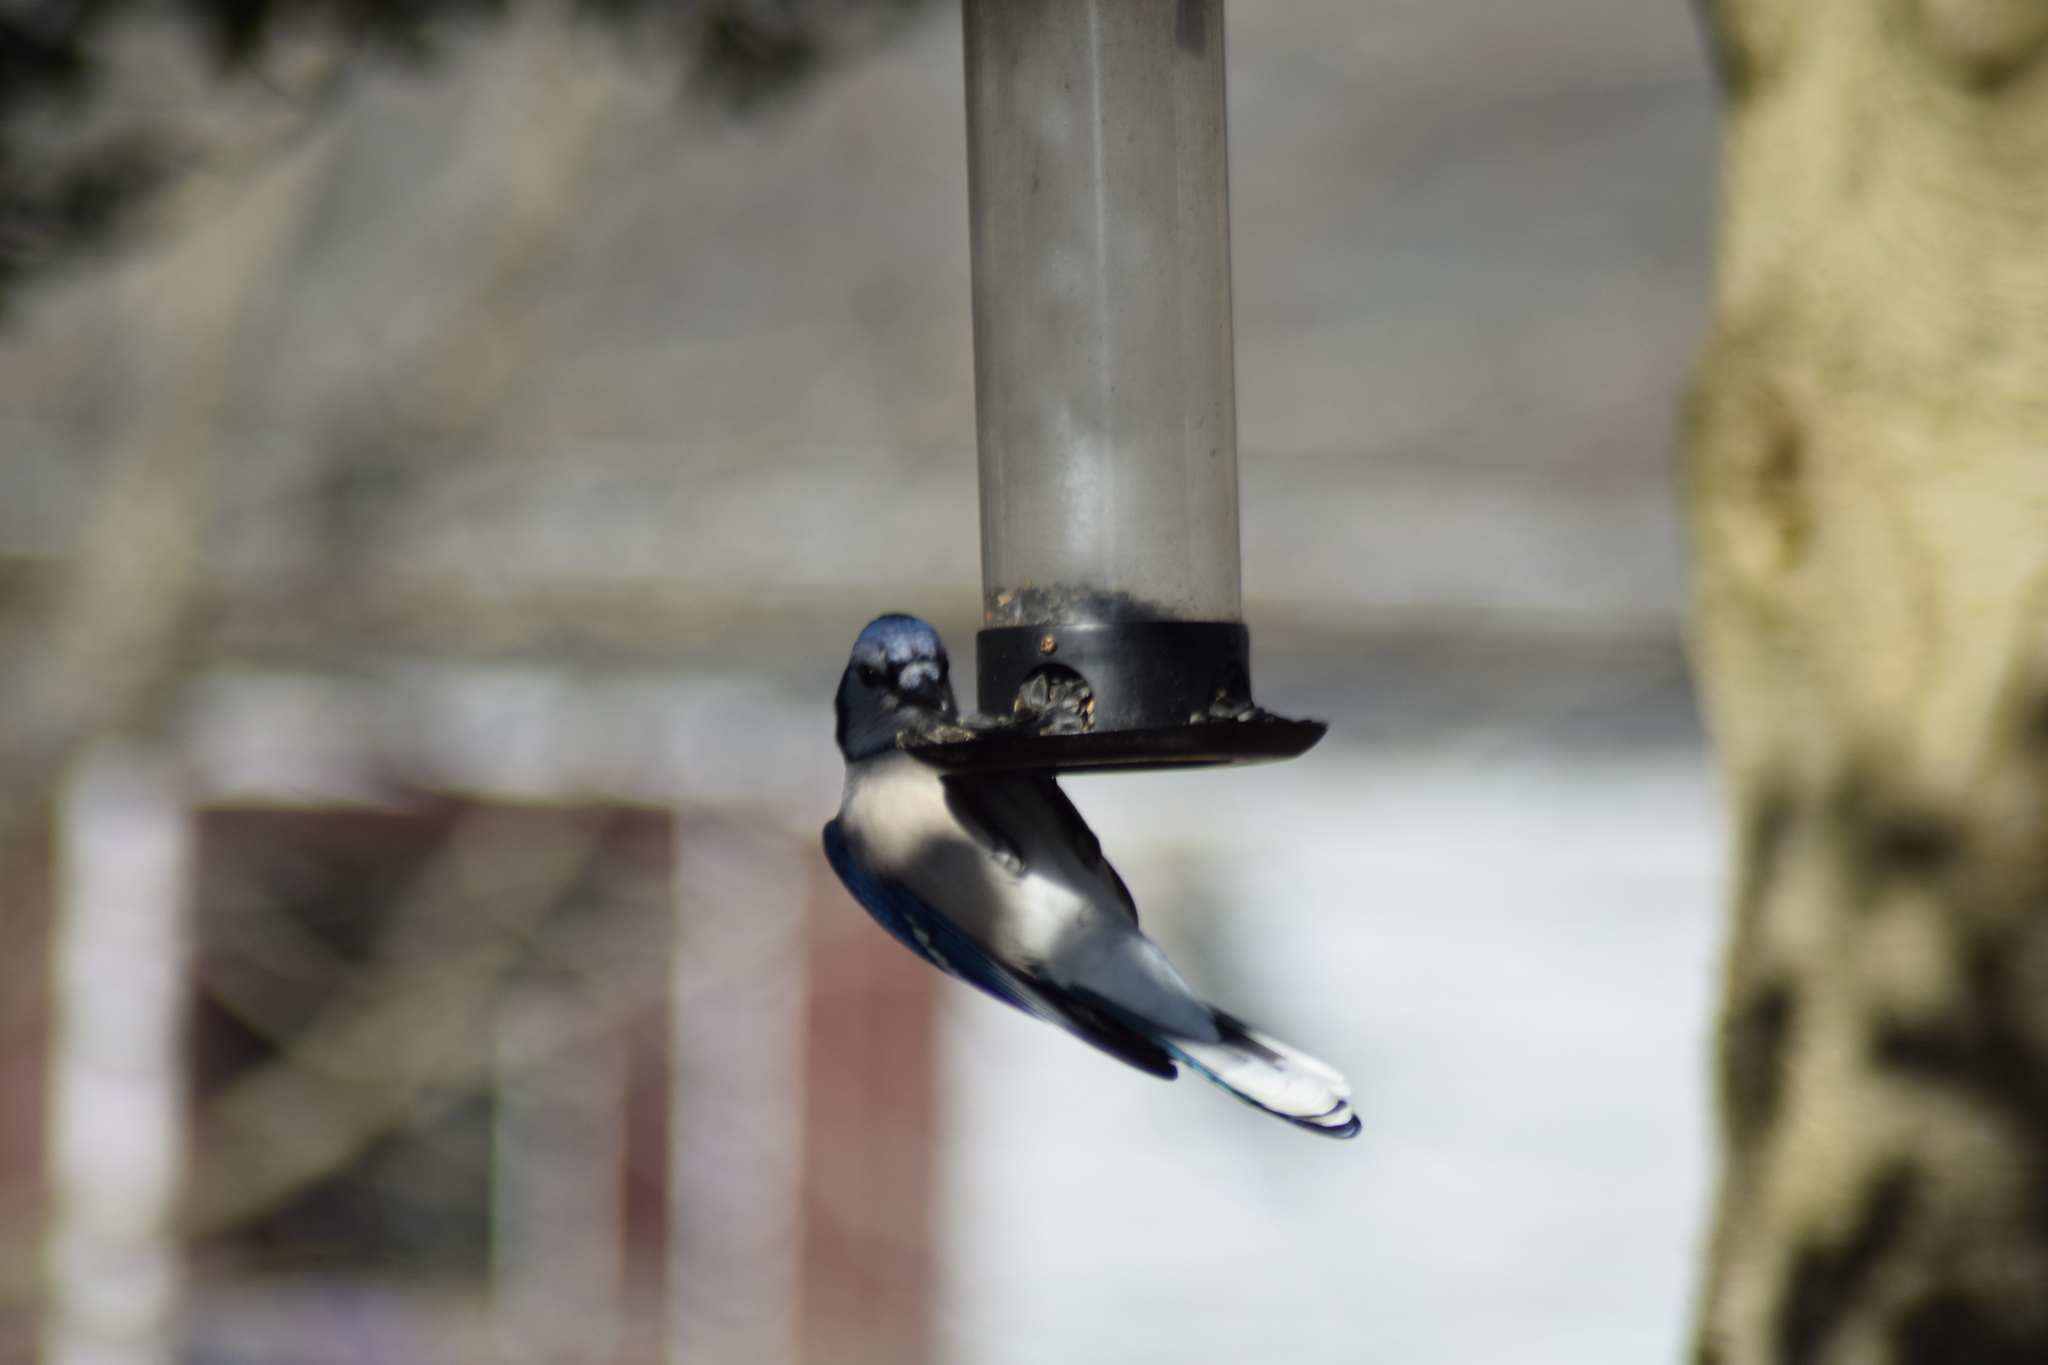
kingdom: Animalia
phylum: Chordata
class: Aves
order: Passeriformes
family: Corvidae
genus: Cyanocitta
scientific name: Cyanocitta cristata
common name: Blue jay
